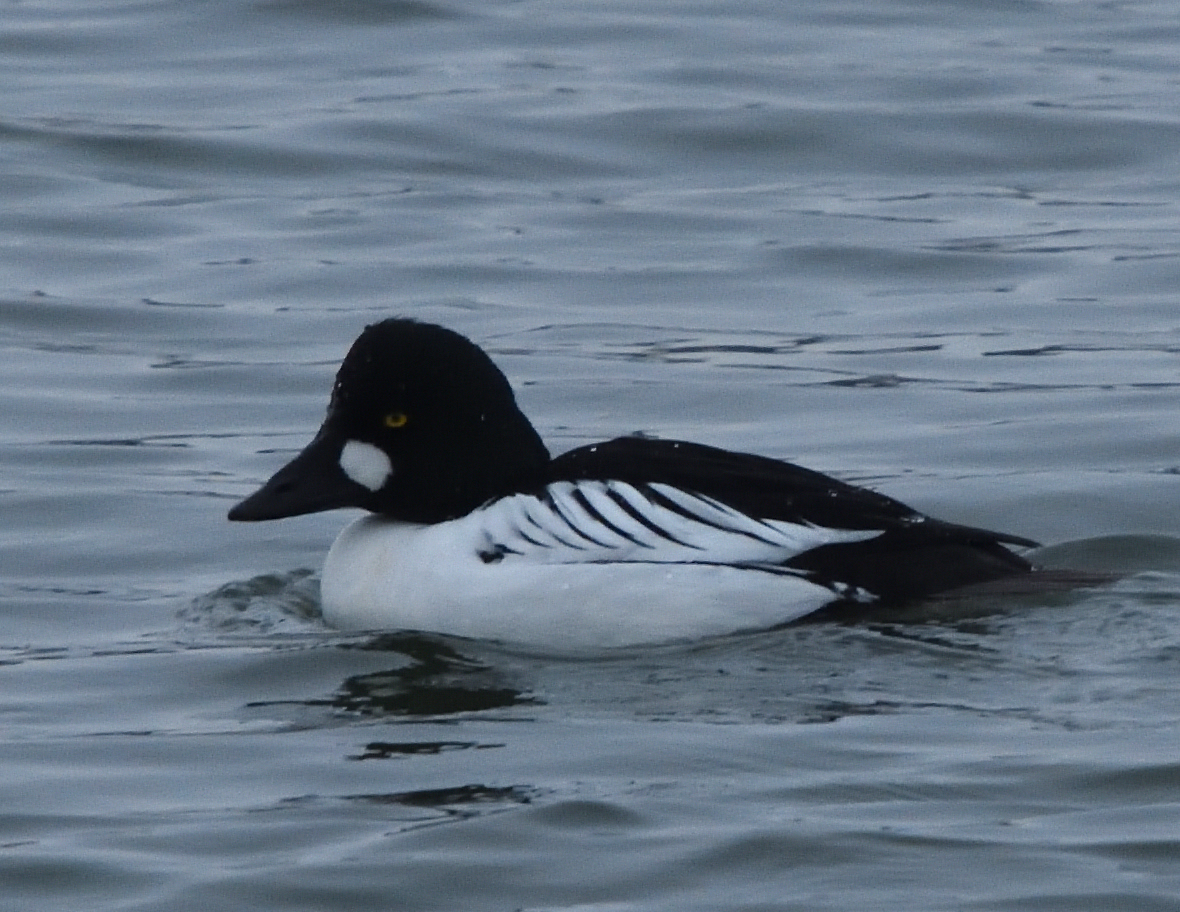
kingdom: Animalia
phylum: Chordata
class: Aves
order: Anseriformes
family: Anatidae
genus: Bucephala
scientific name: Bucephala clangula
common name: Common goldeneye
